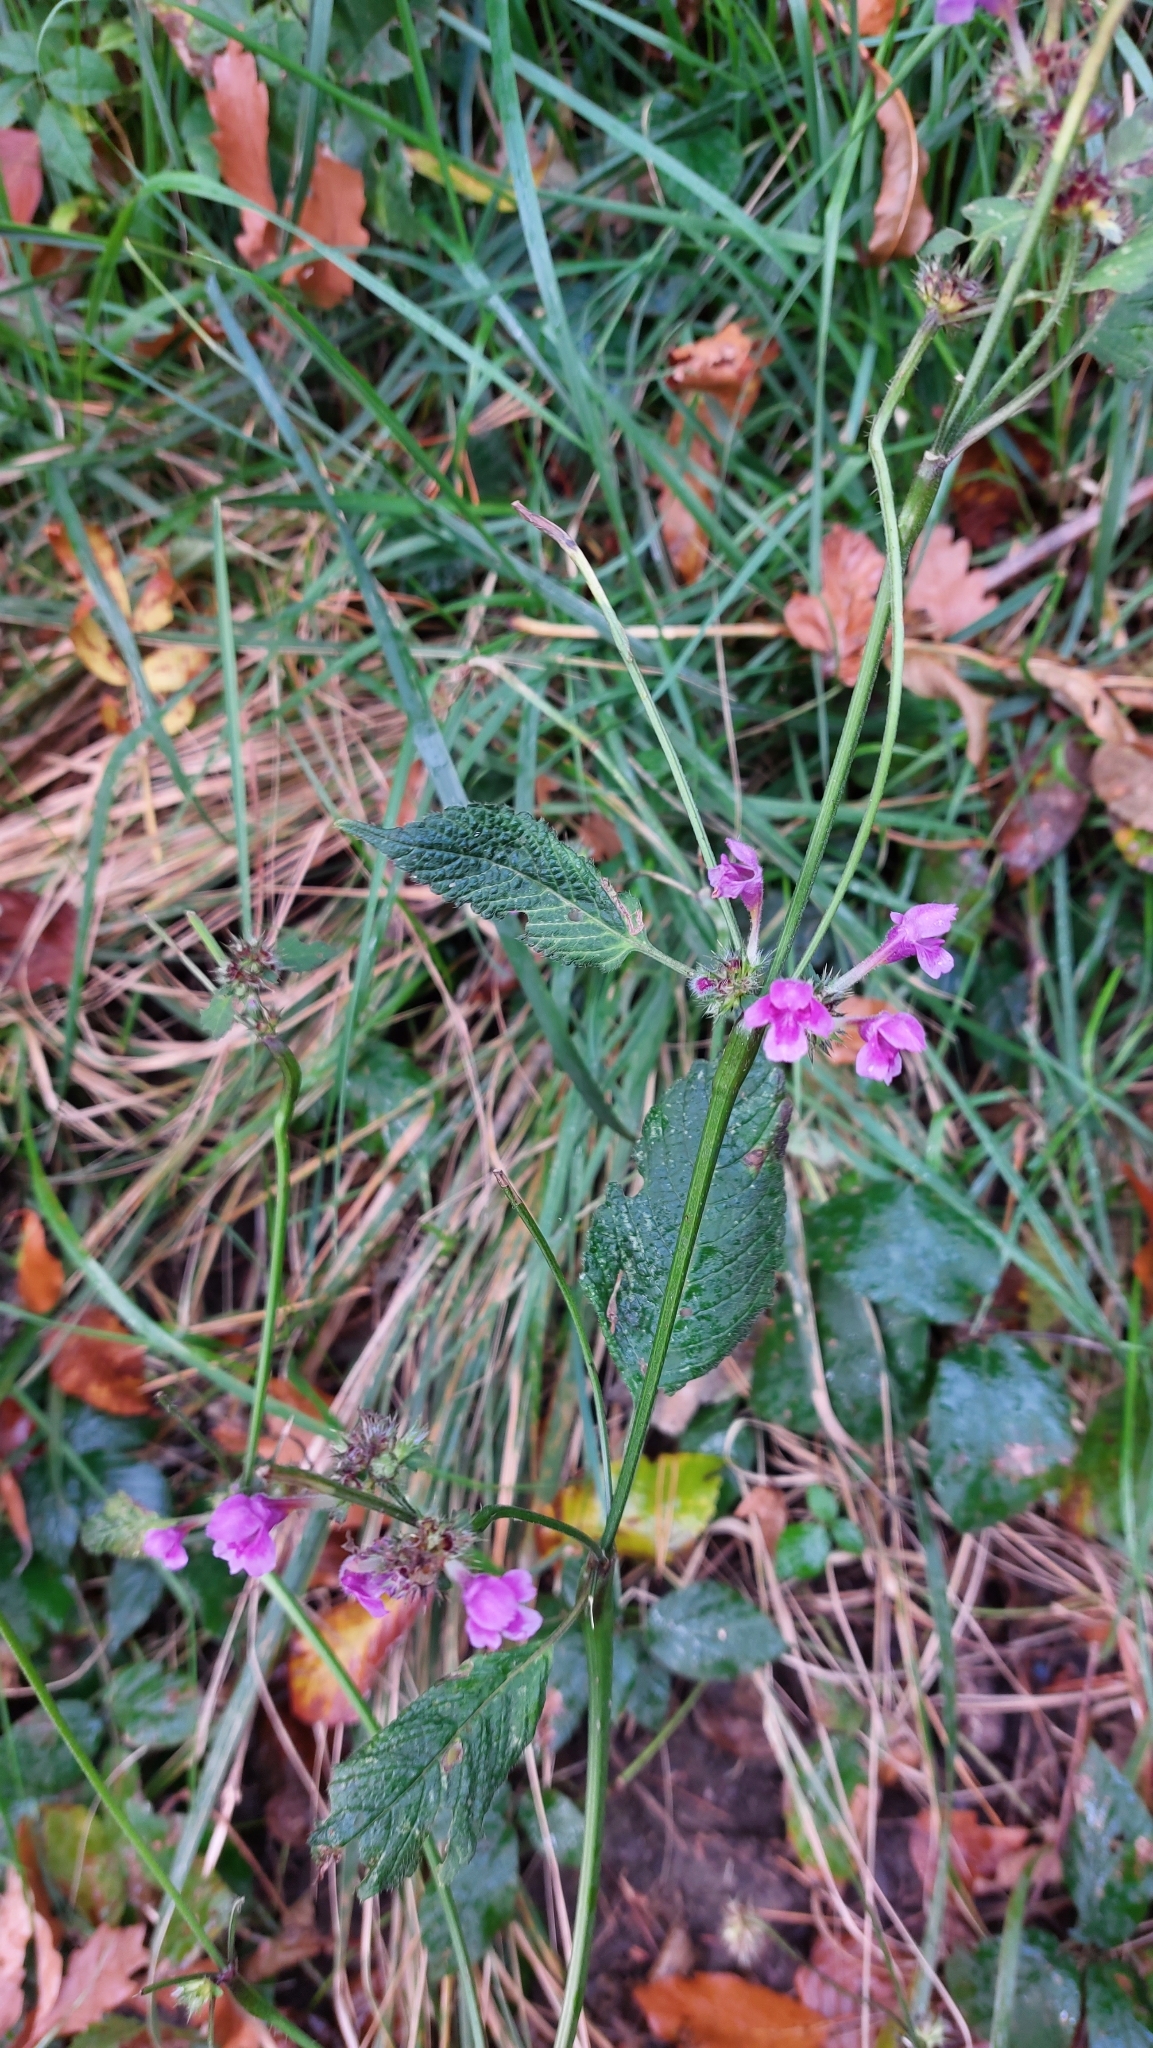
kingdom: Plantae
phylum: Tracheophyta
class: Magnoliopsida
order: Lamiales
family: Lamiaceae
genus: Galeopsis
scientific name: Galeopsis pubescens
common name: Downy hemp-nettle
